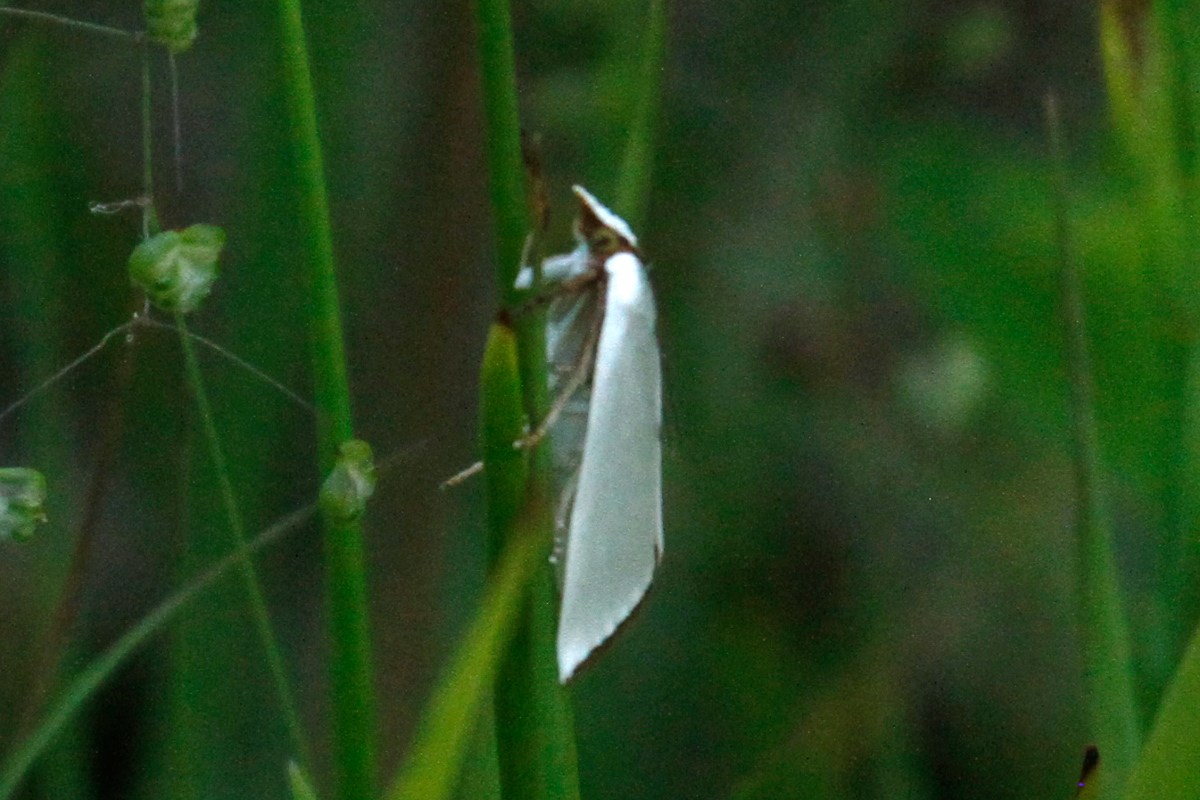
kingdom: Animalia
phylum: Arthropoda
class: Insecta
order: Lepidoptera
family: Crambidae
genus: Argyria
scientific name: Argyria nivalis
